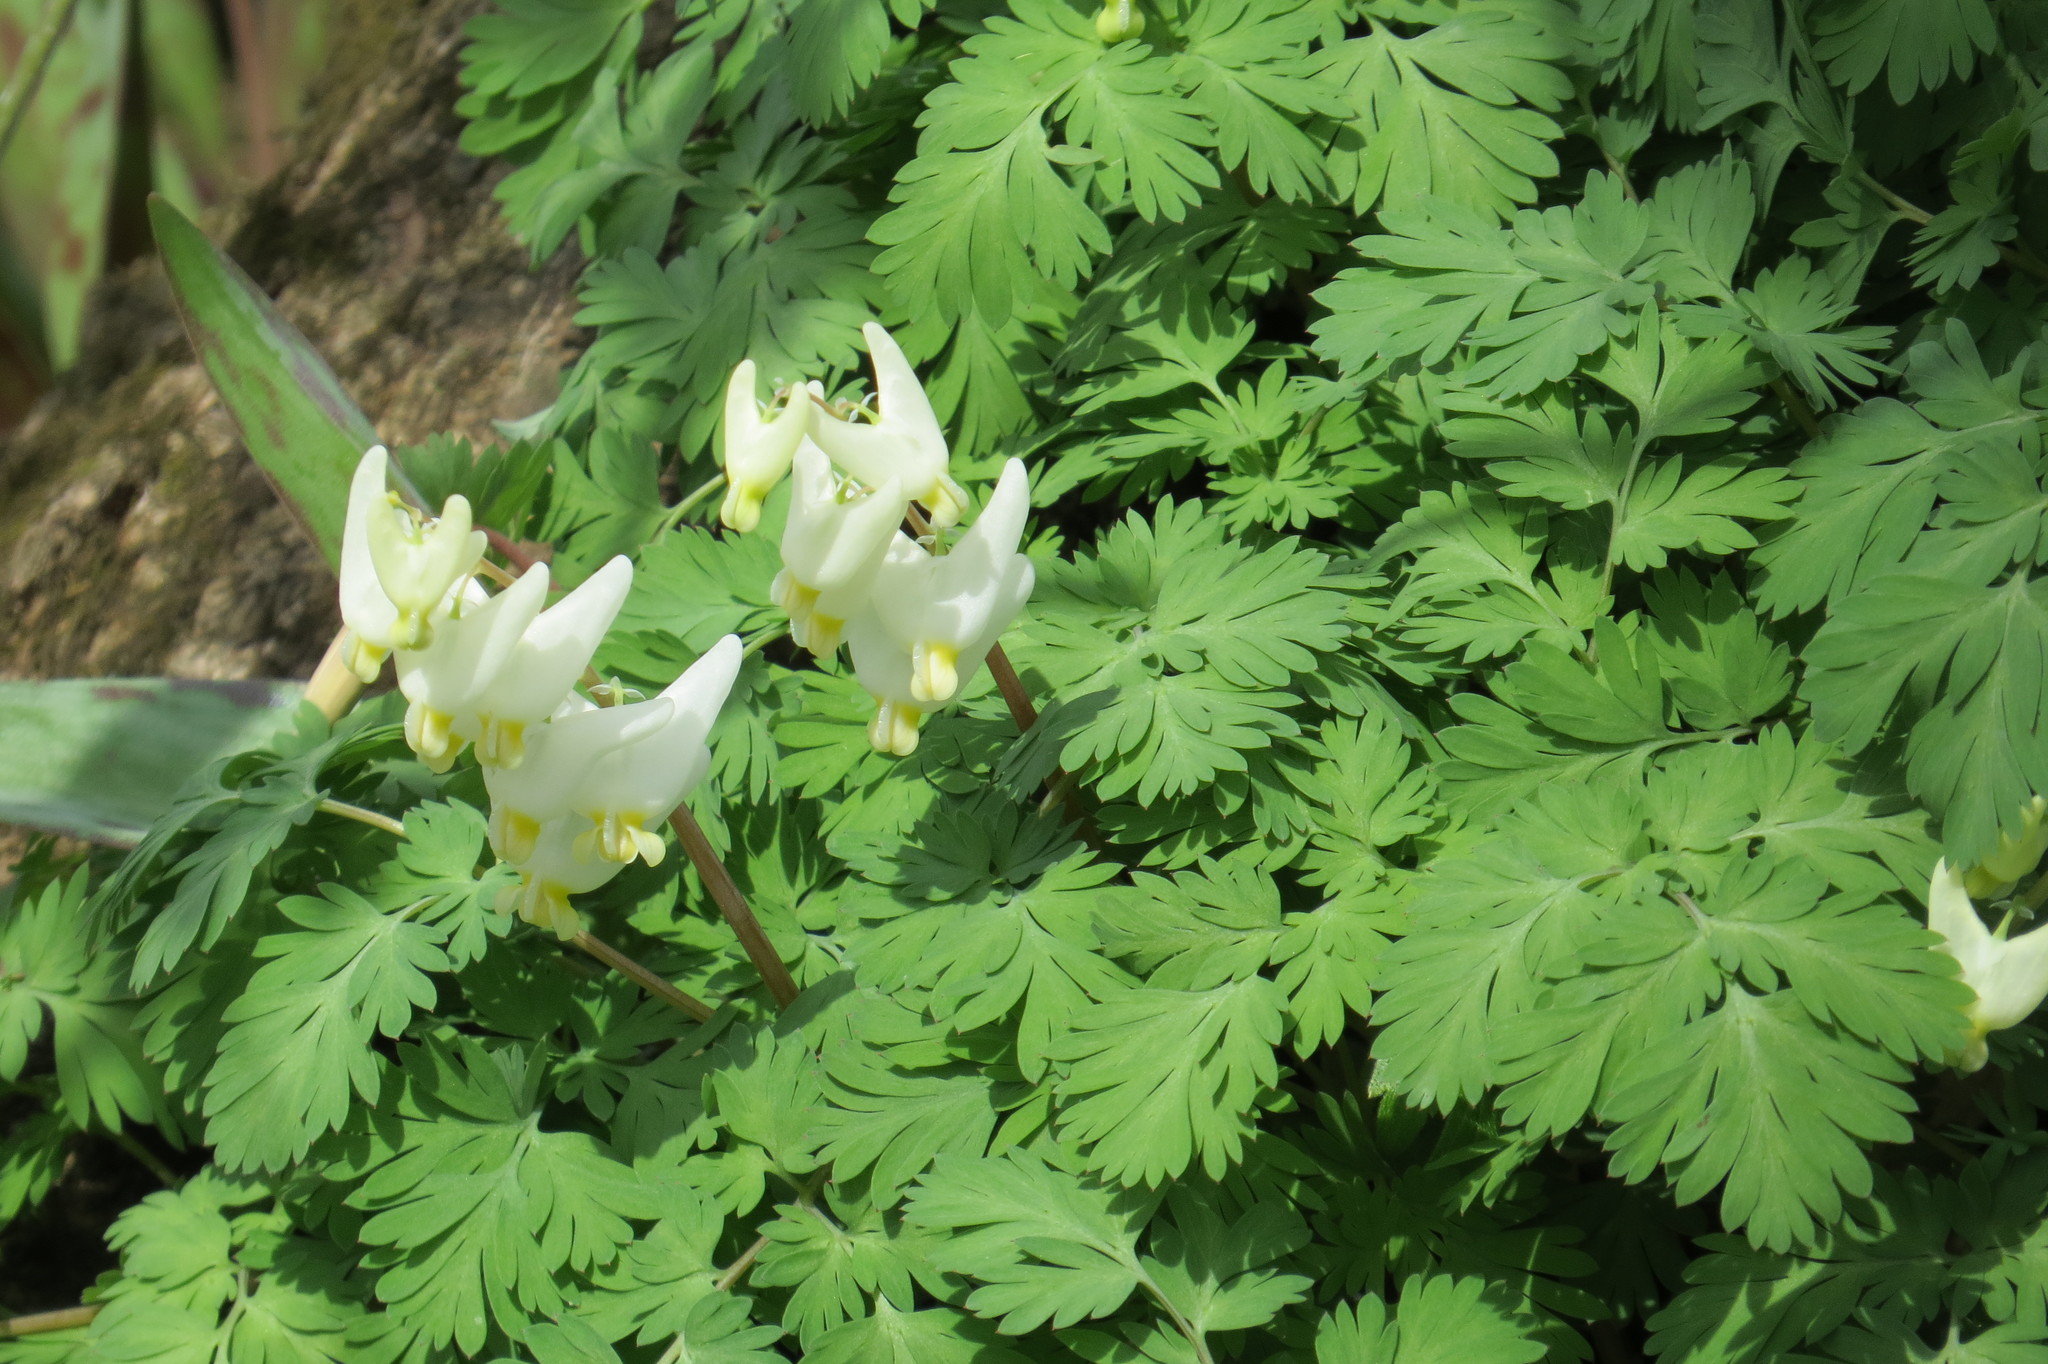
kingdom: Plantae
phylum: Tracheophyta
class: Magnoliopsida
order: Ranunculales
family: Papaveraceae
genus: Dicentra
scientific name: Dicentra cucullaria
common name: Dutchman's breeches
